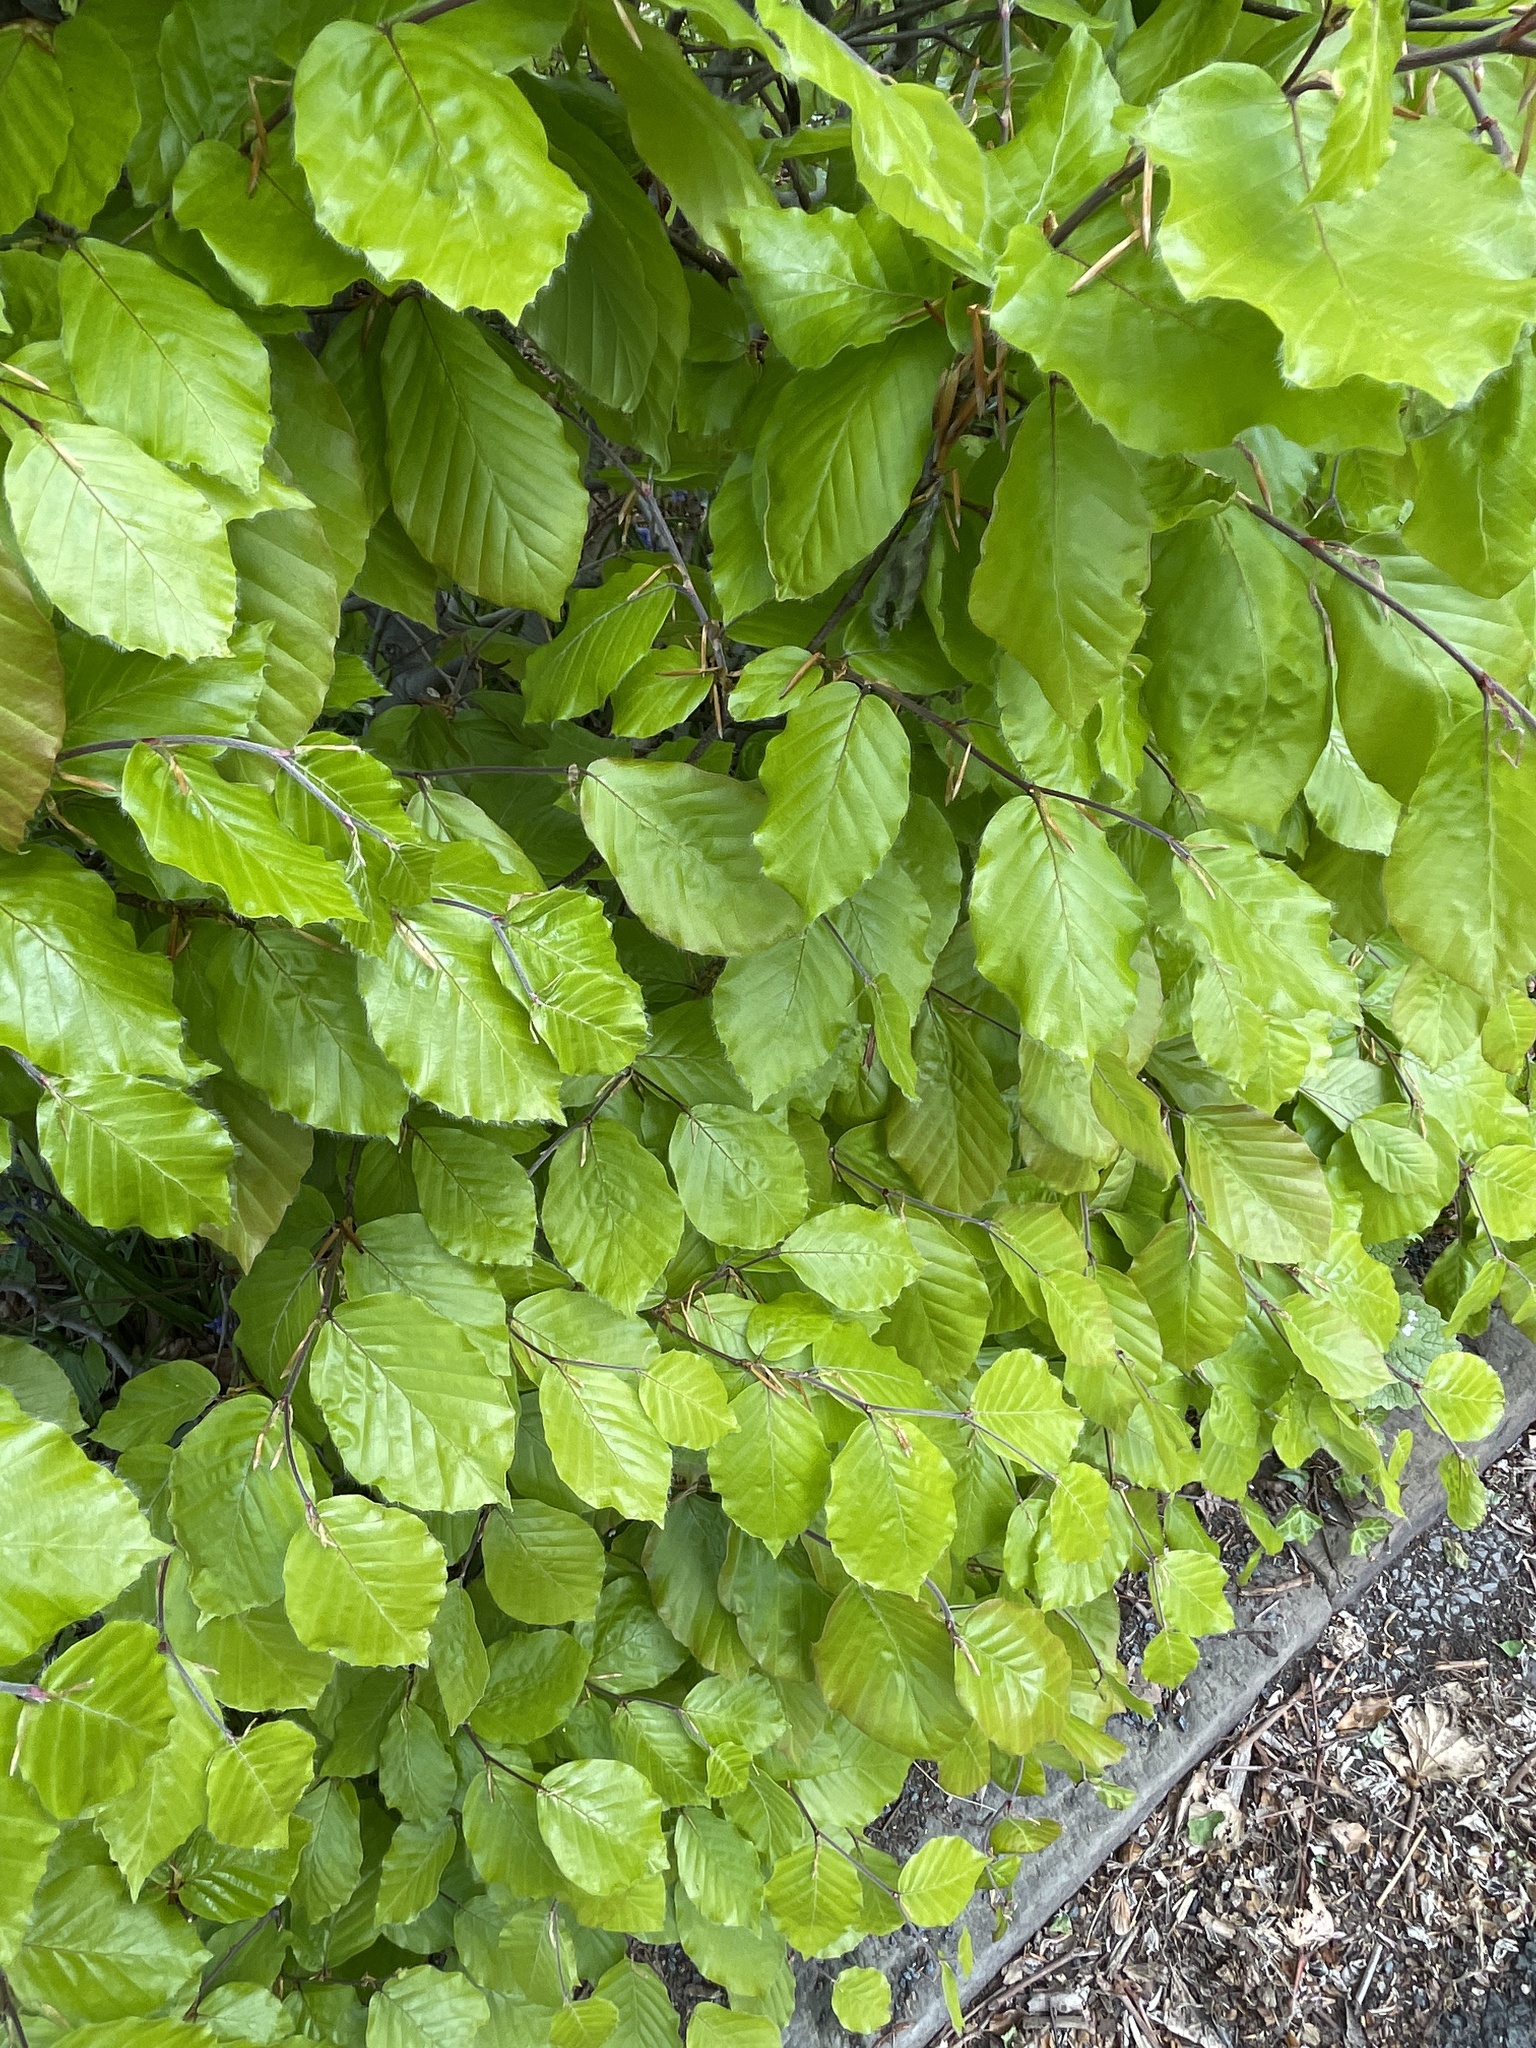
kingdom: Plantae
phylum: Tracheophyta
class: Magnoliopsida
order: Fagales
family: Fagaceae
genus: Fagus
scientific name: Fagus sylvatica
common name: Beech
